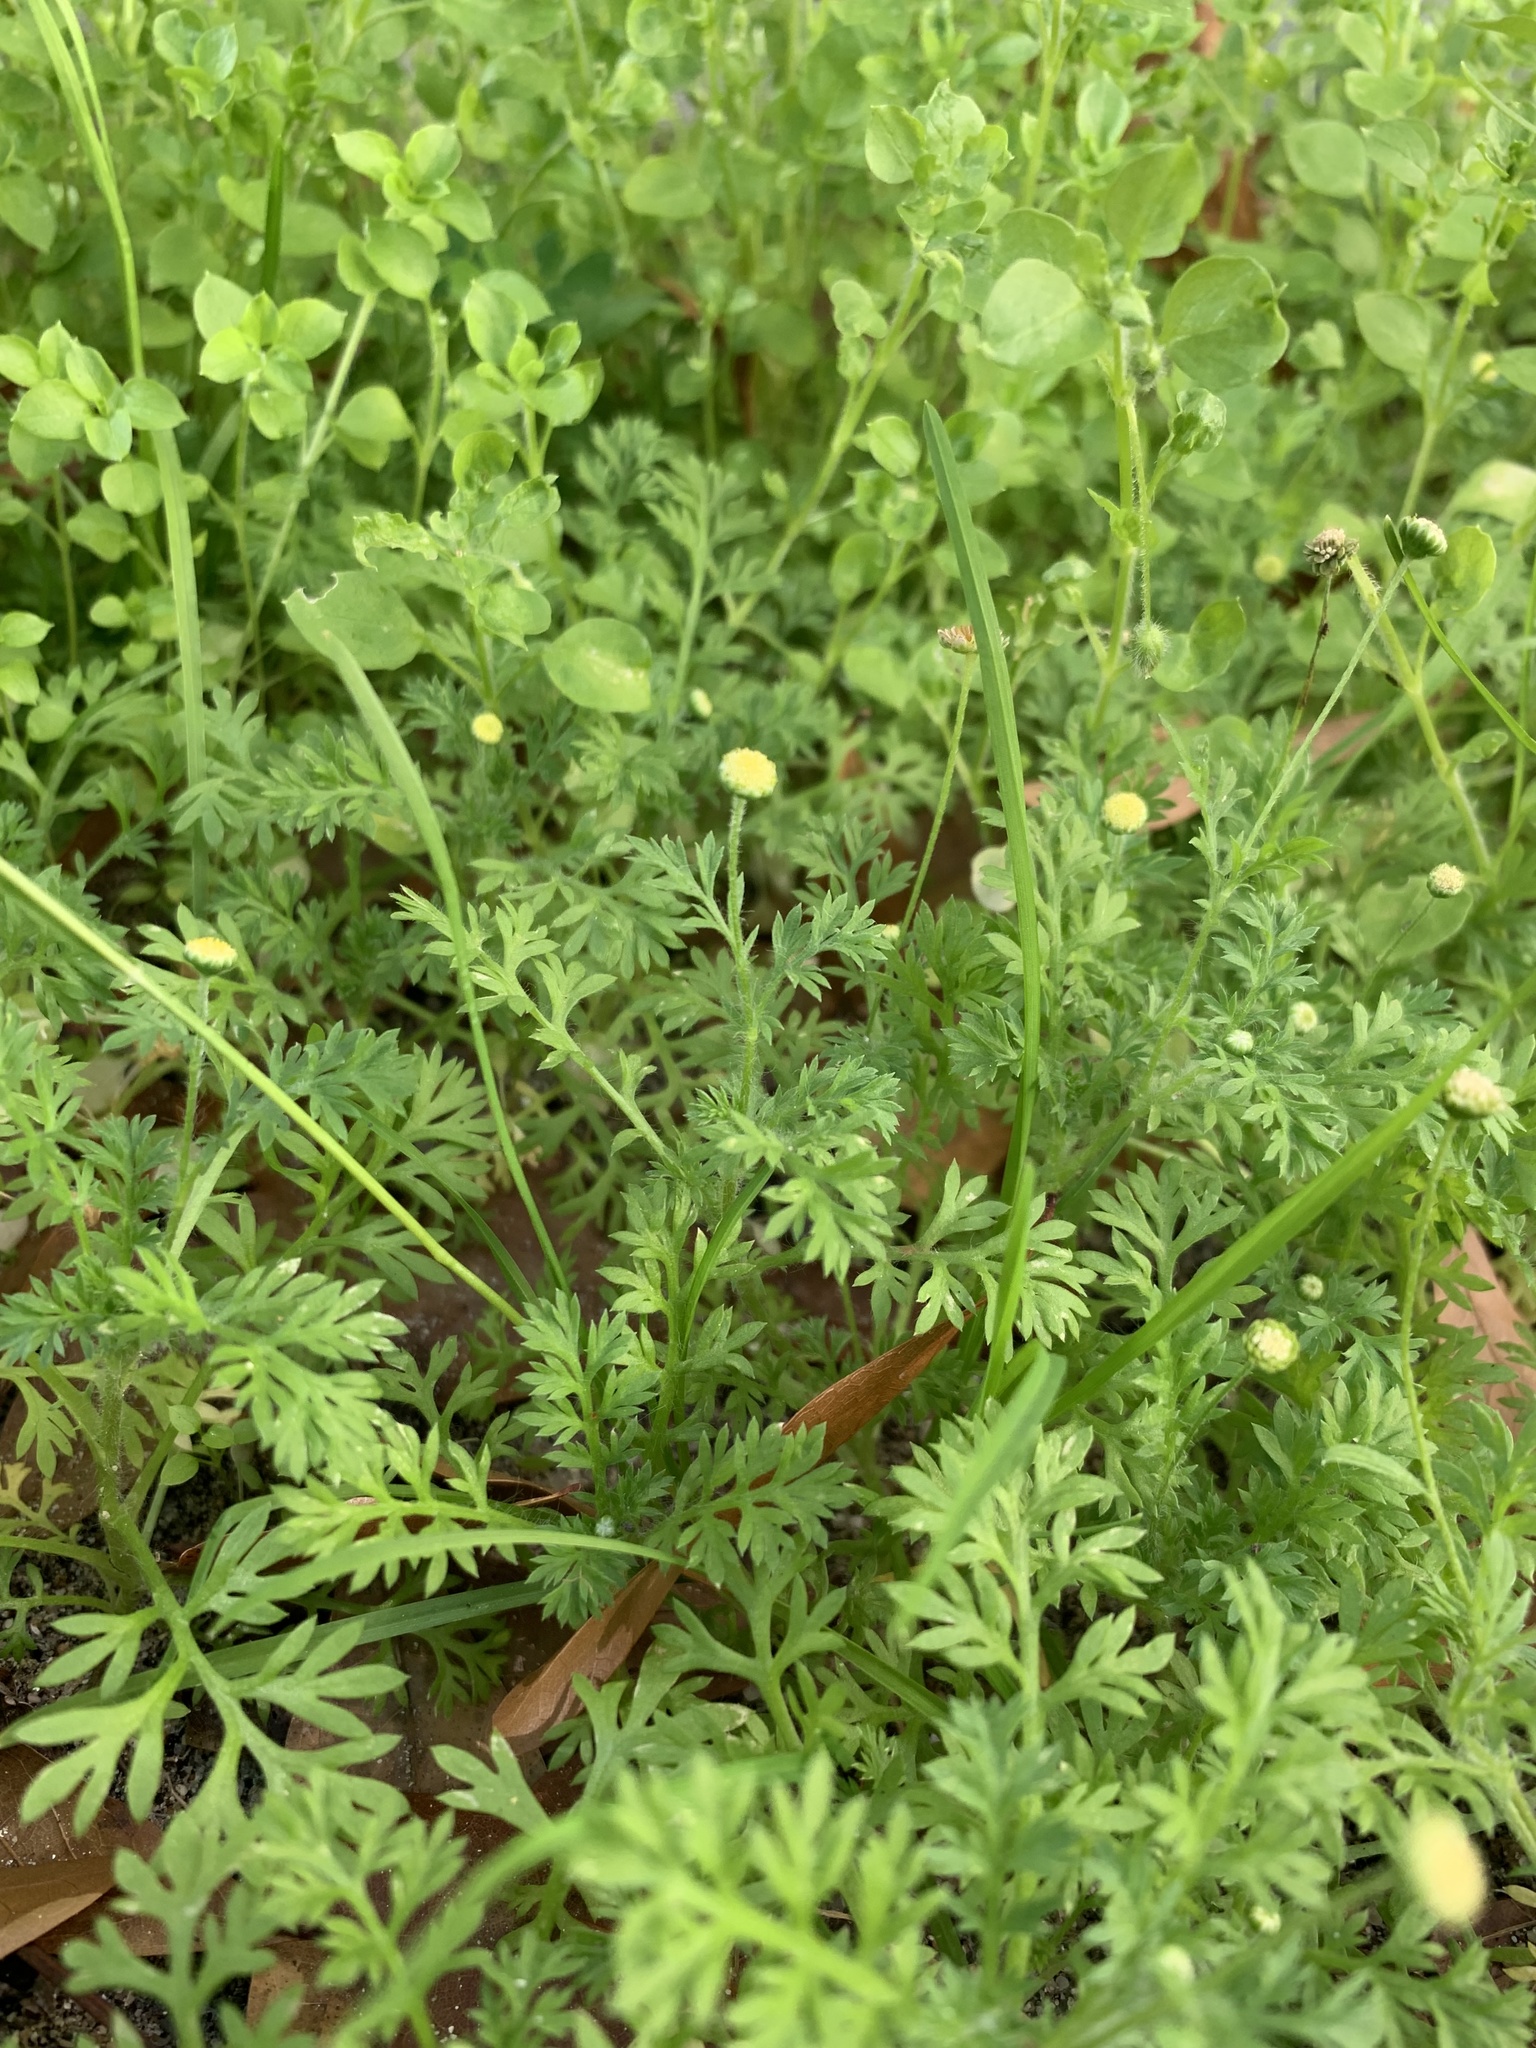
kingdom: Plantae
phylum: Tracheophyta
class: Magnoliopsida
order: Asterales
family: Asteraceae
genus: Cotula
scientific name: Cotula australis
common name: Australian waterbuttons
